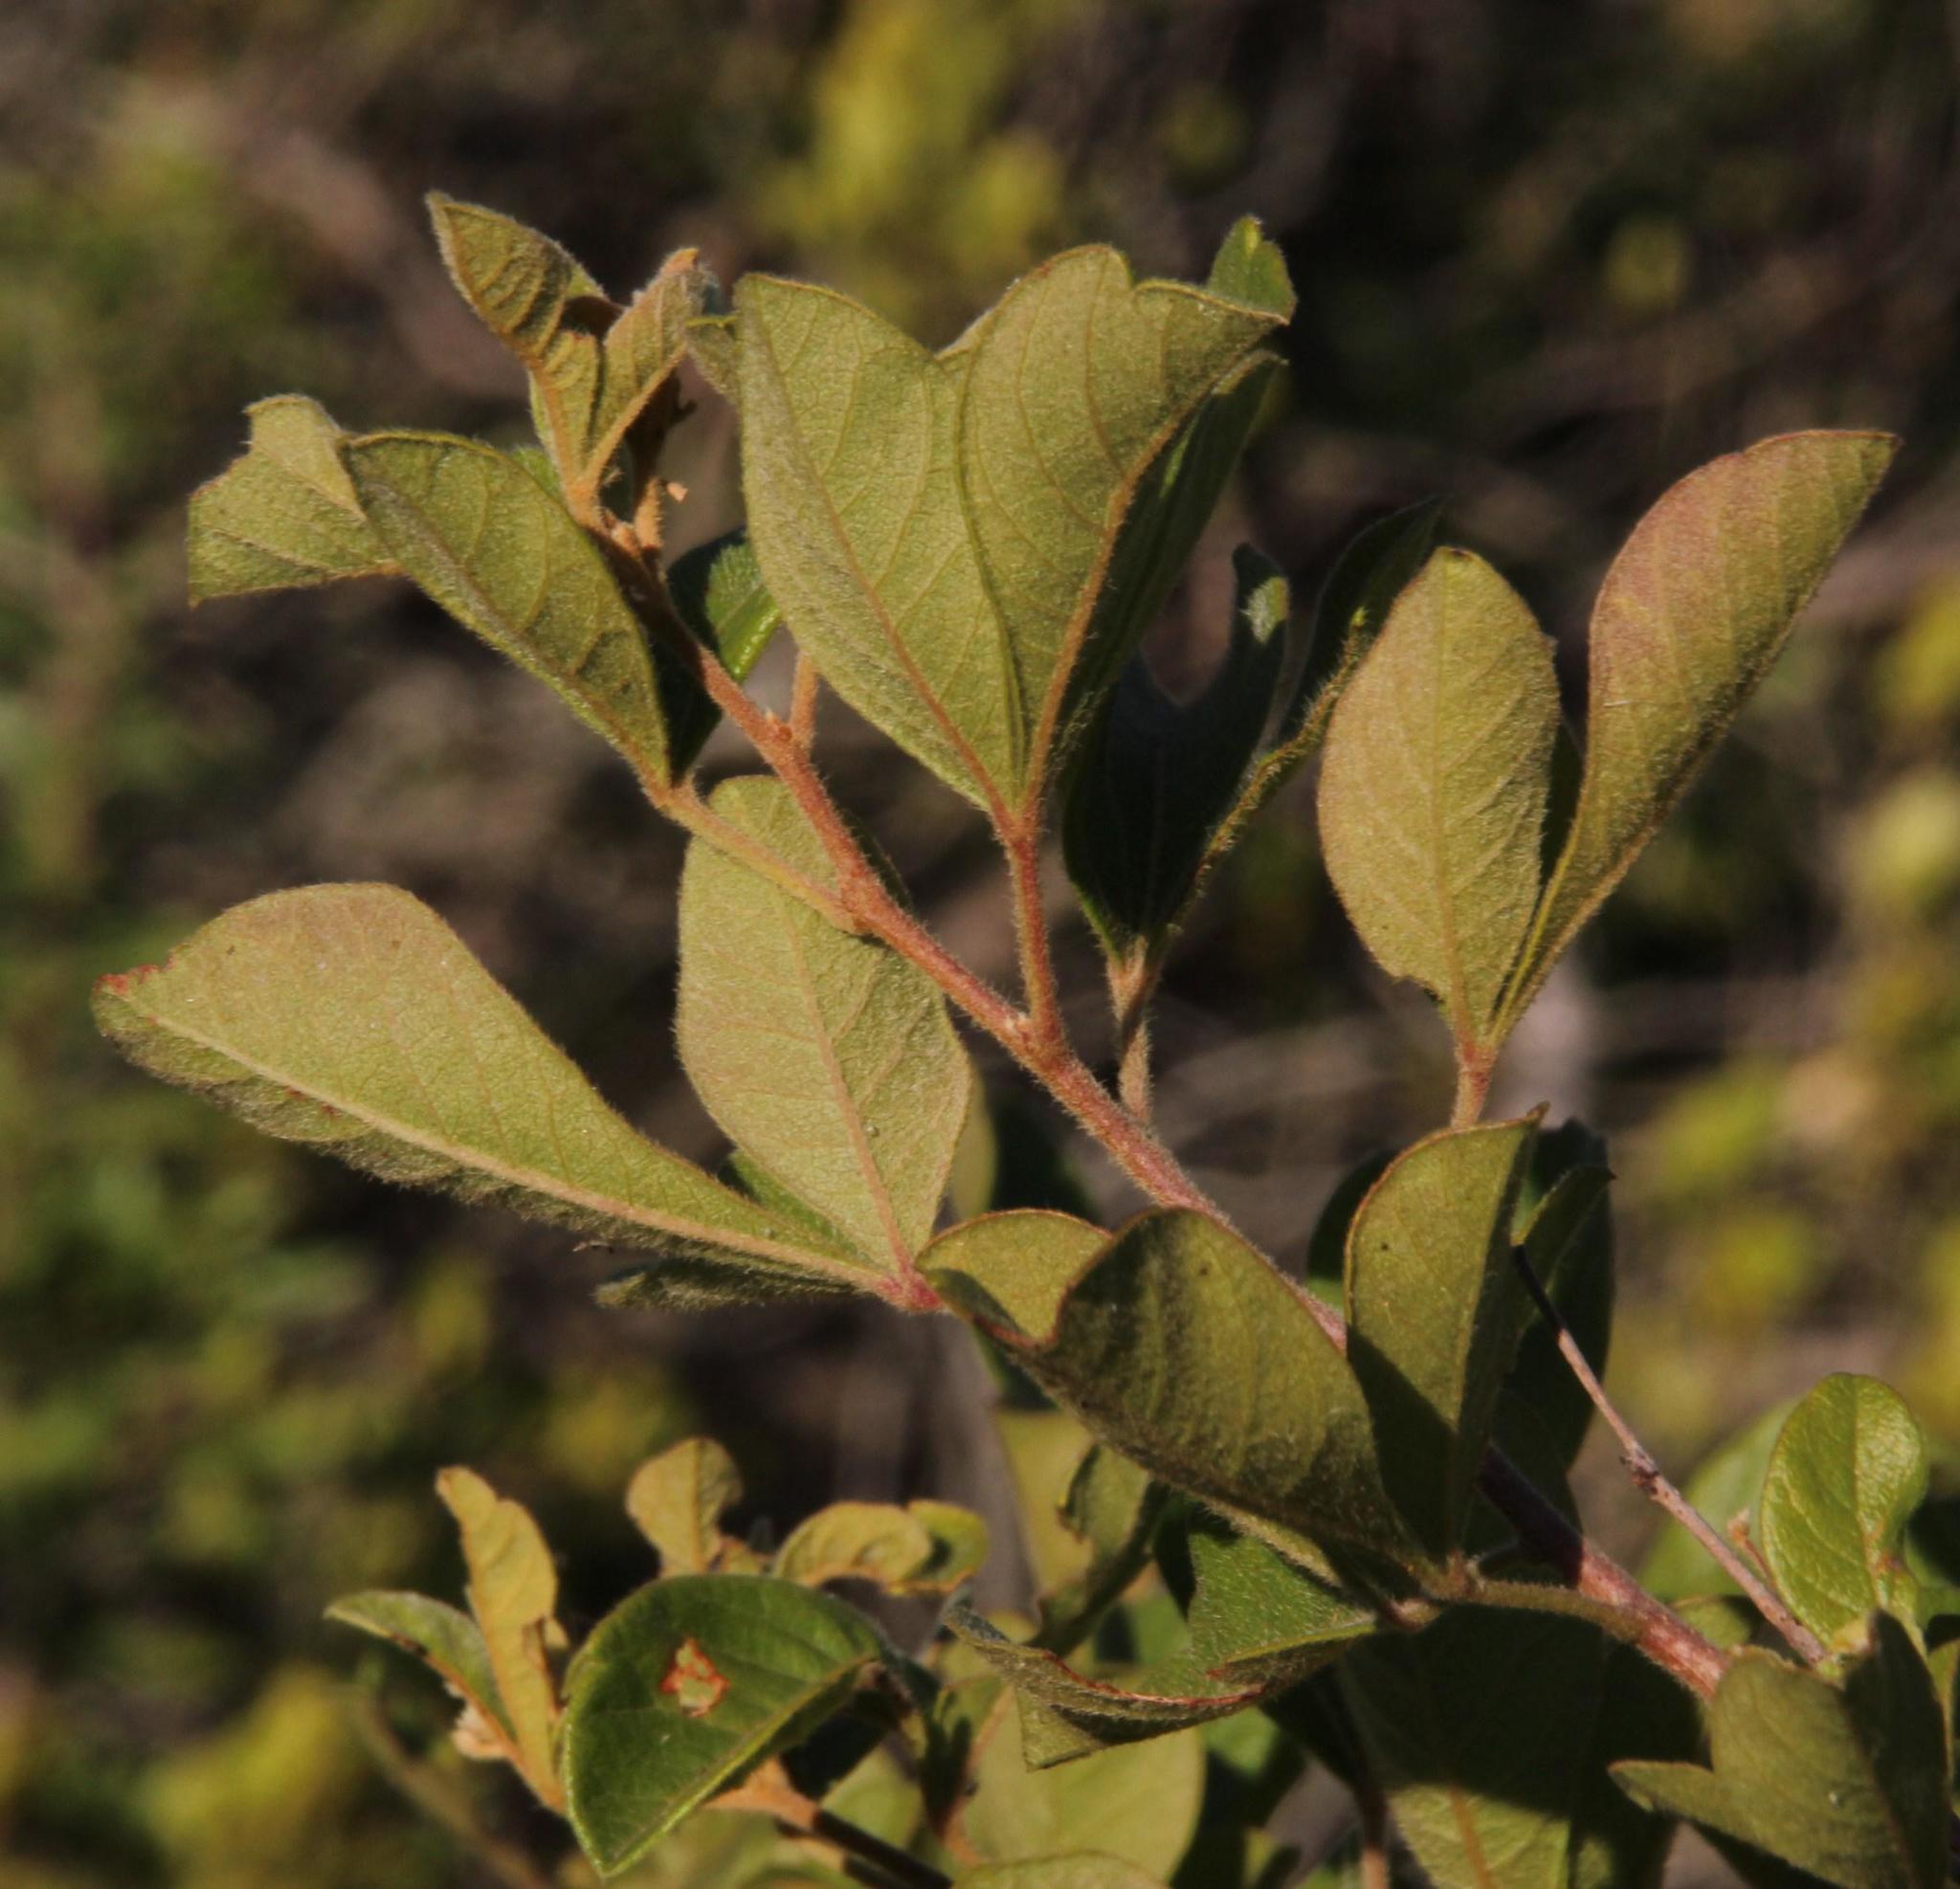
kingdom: Plantae
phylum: Tracheophyta
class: Magnoliopsida
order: Sapindales
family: Anacardiaceae
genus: Searsia
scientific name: Searsia rehmanniana
